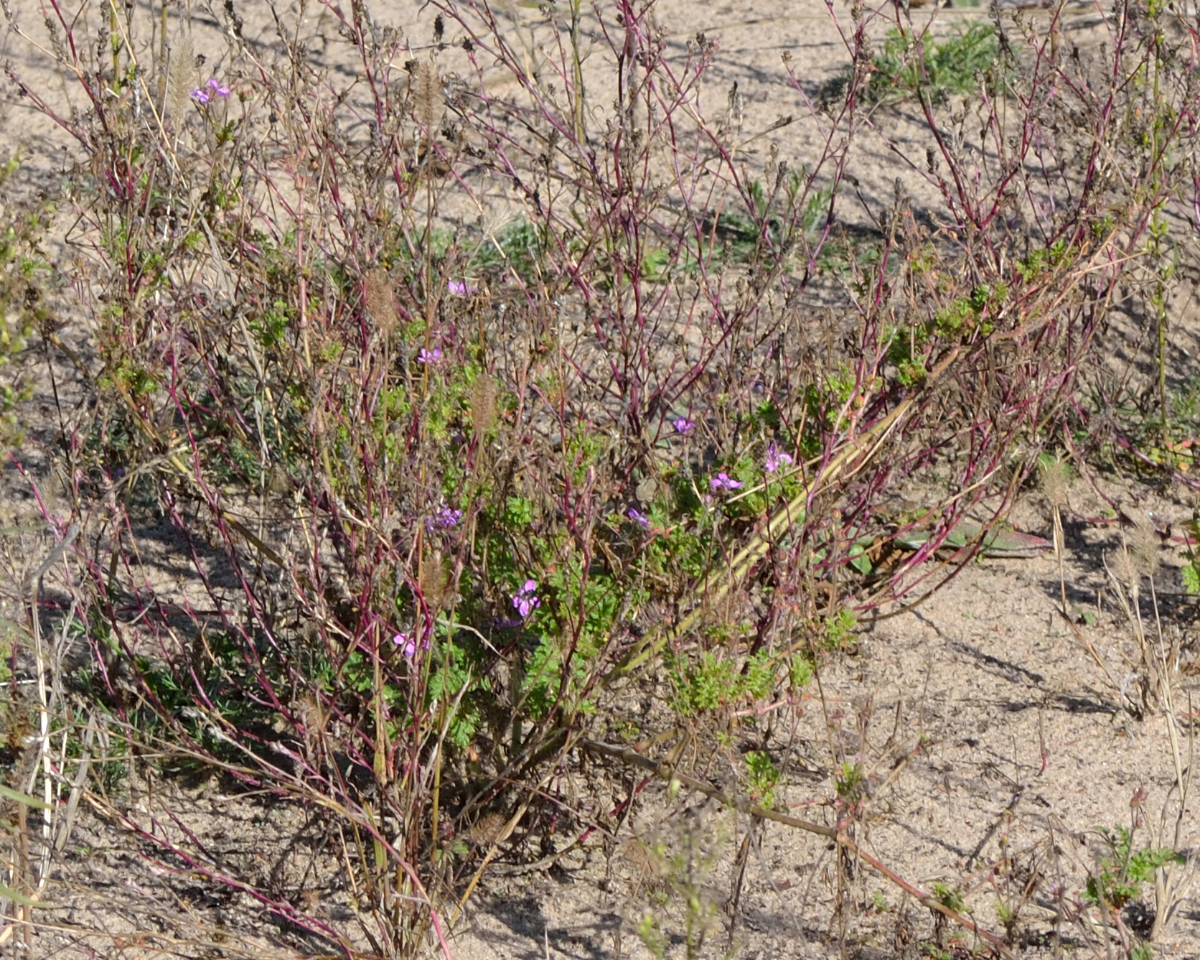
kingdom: Plantae
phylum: Tracheophyta
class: Magnoliopsida
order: Geraniales
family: Geraniaceae
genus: Erodium
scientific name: Erodium cicutarium
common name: Common stork's-bill
